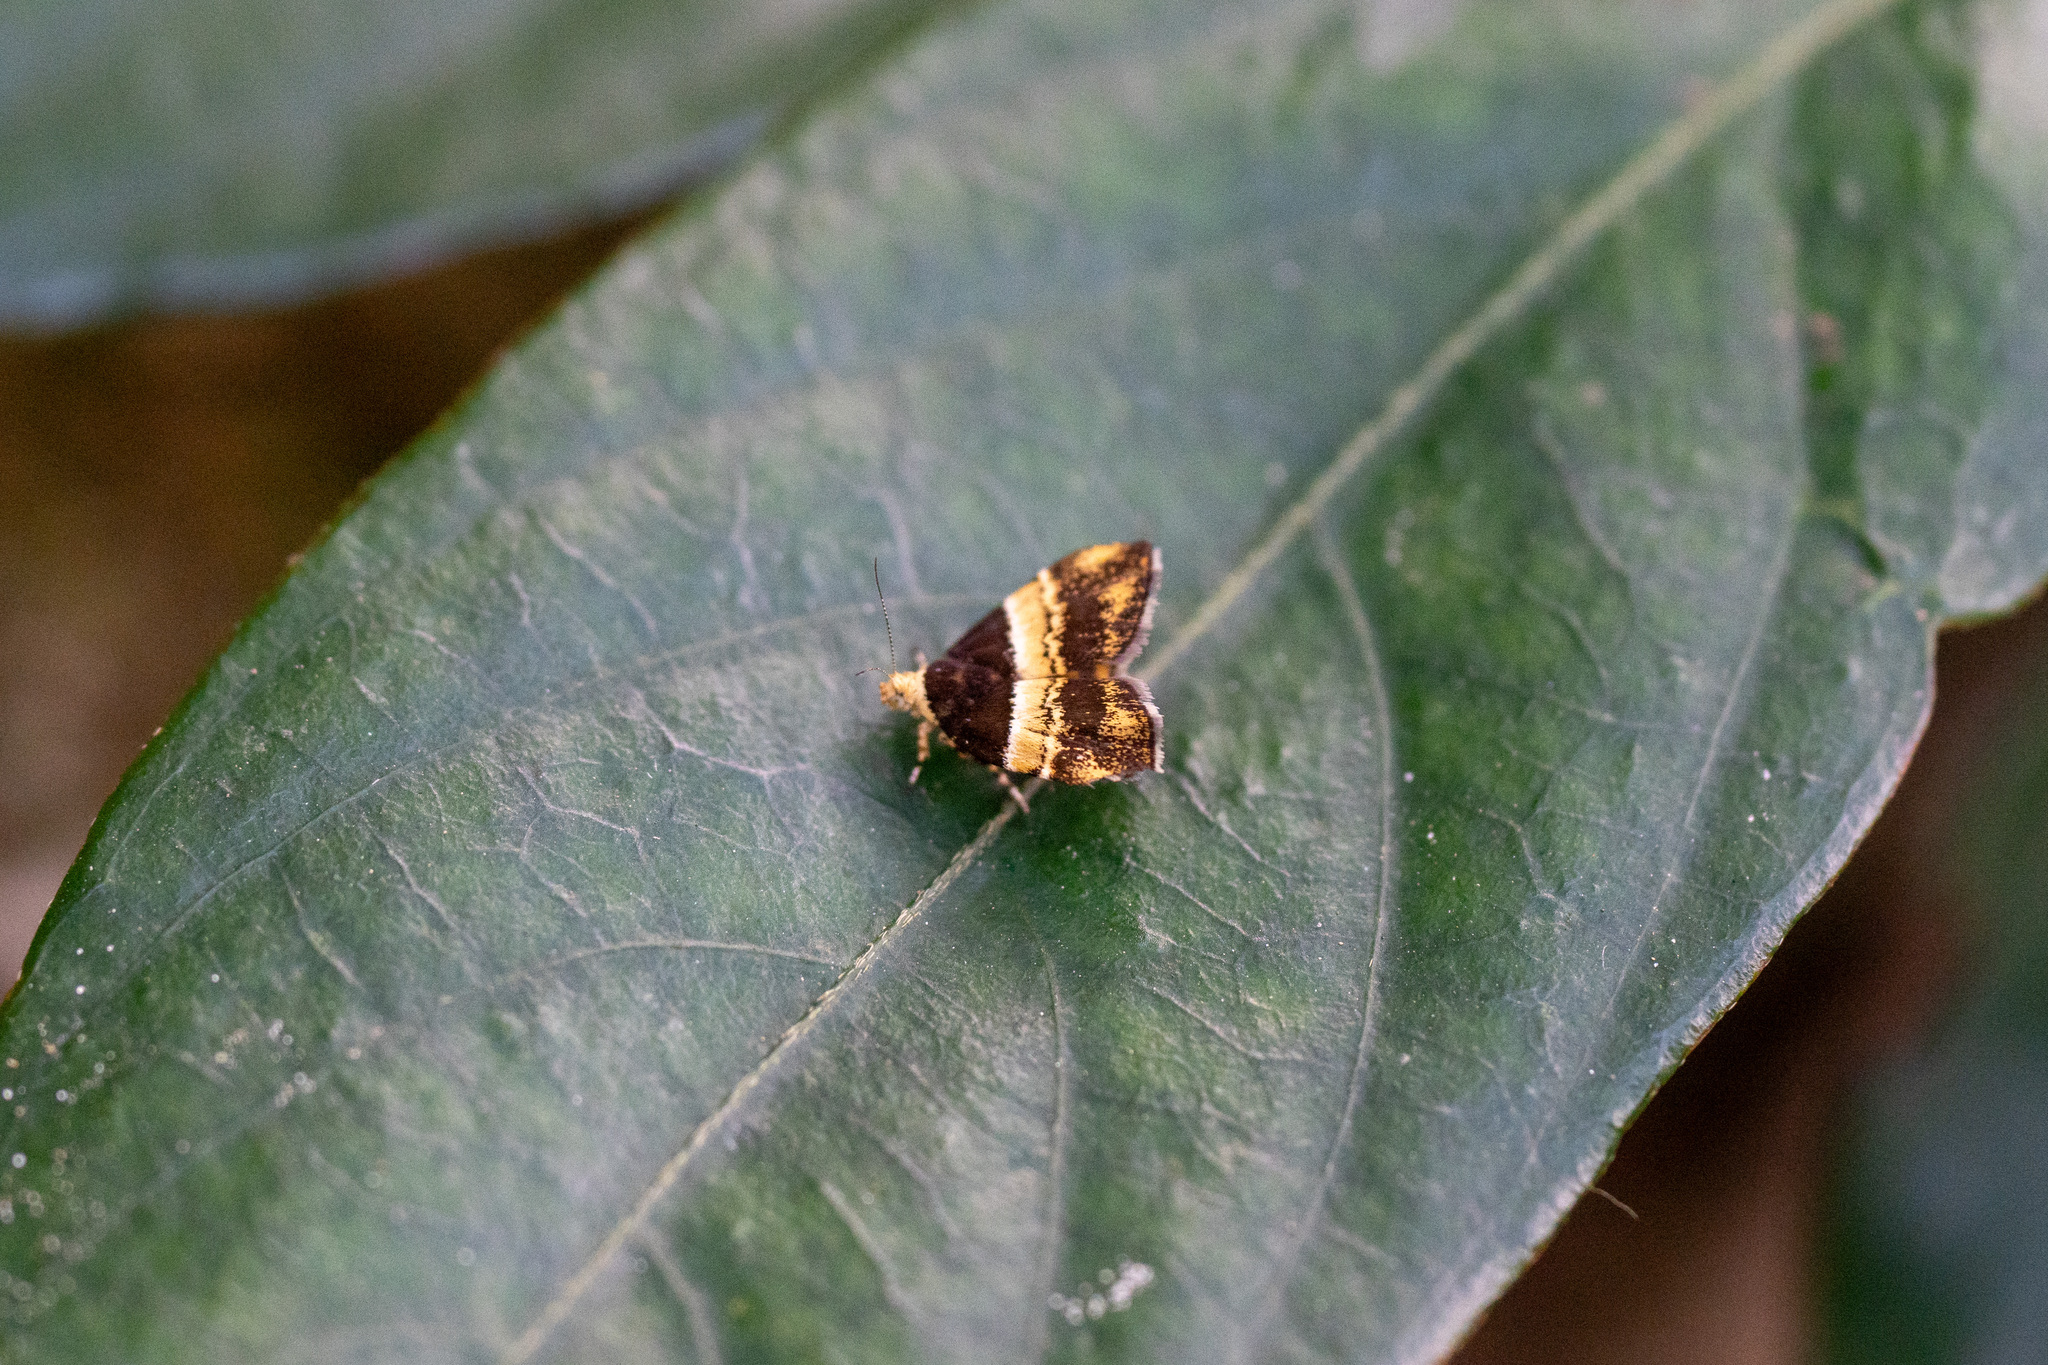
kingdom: Animalia
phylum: Arthropoda
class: Insecta
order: Lepidoptera
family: Choreutidae
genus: Choreutis
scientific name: Choreutis basalis
